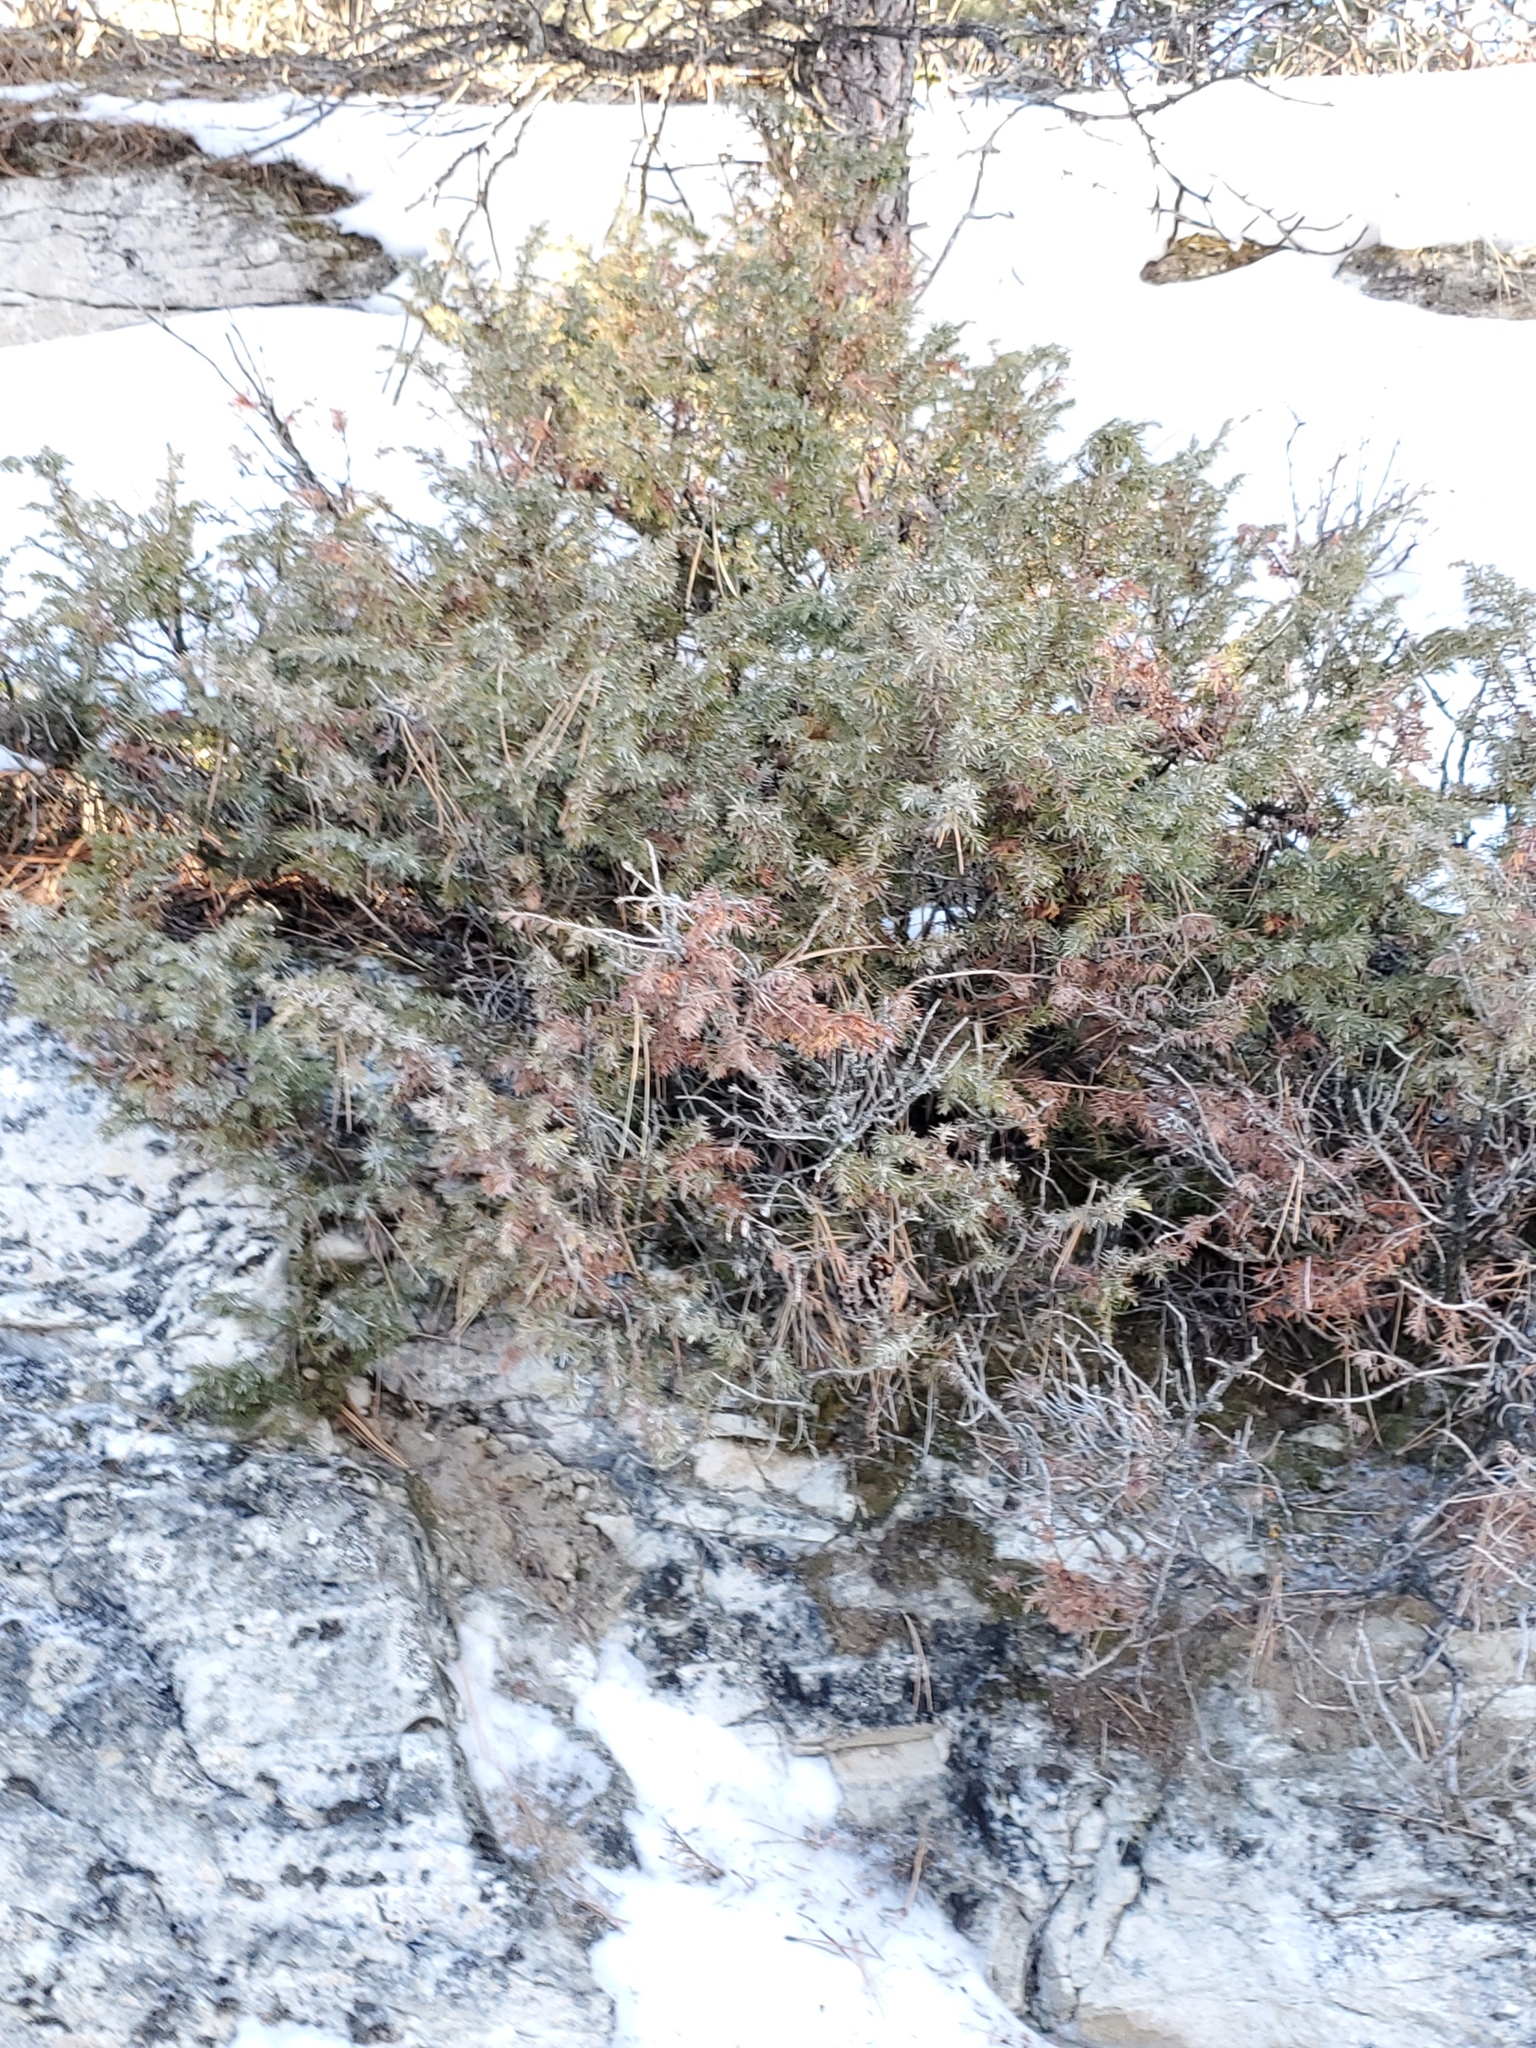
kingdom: Plantae
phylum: Tracheophyta
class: Pinopsida
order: Pinales
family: Cupressaceae
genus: Juniperus
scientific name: Juniperus communis
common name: Common juniper
